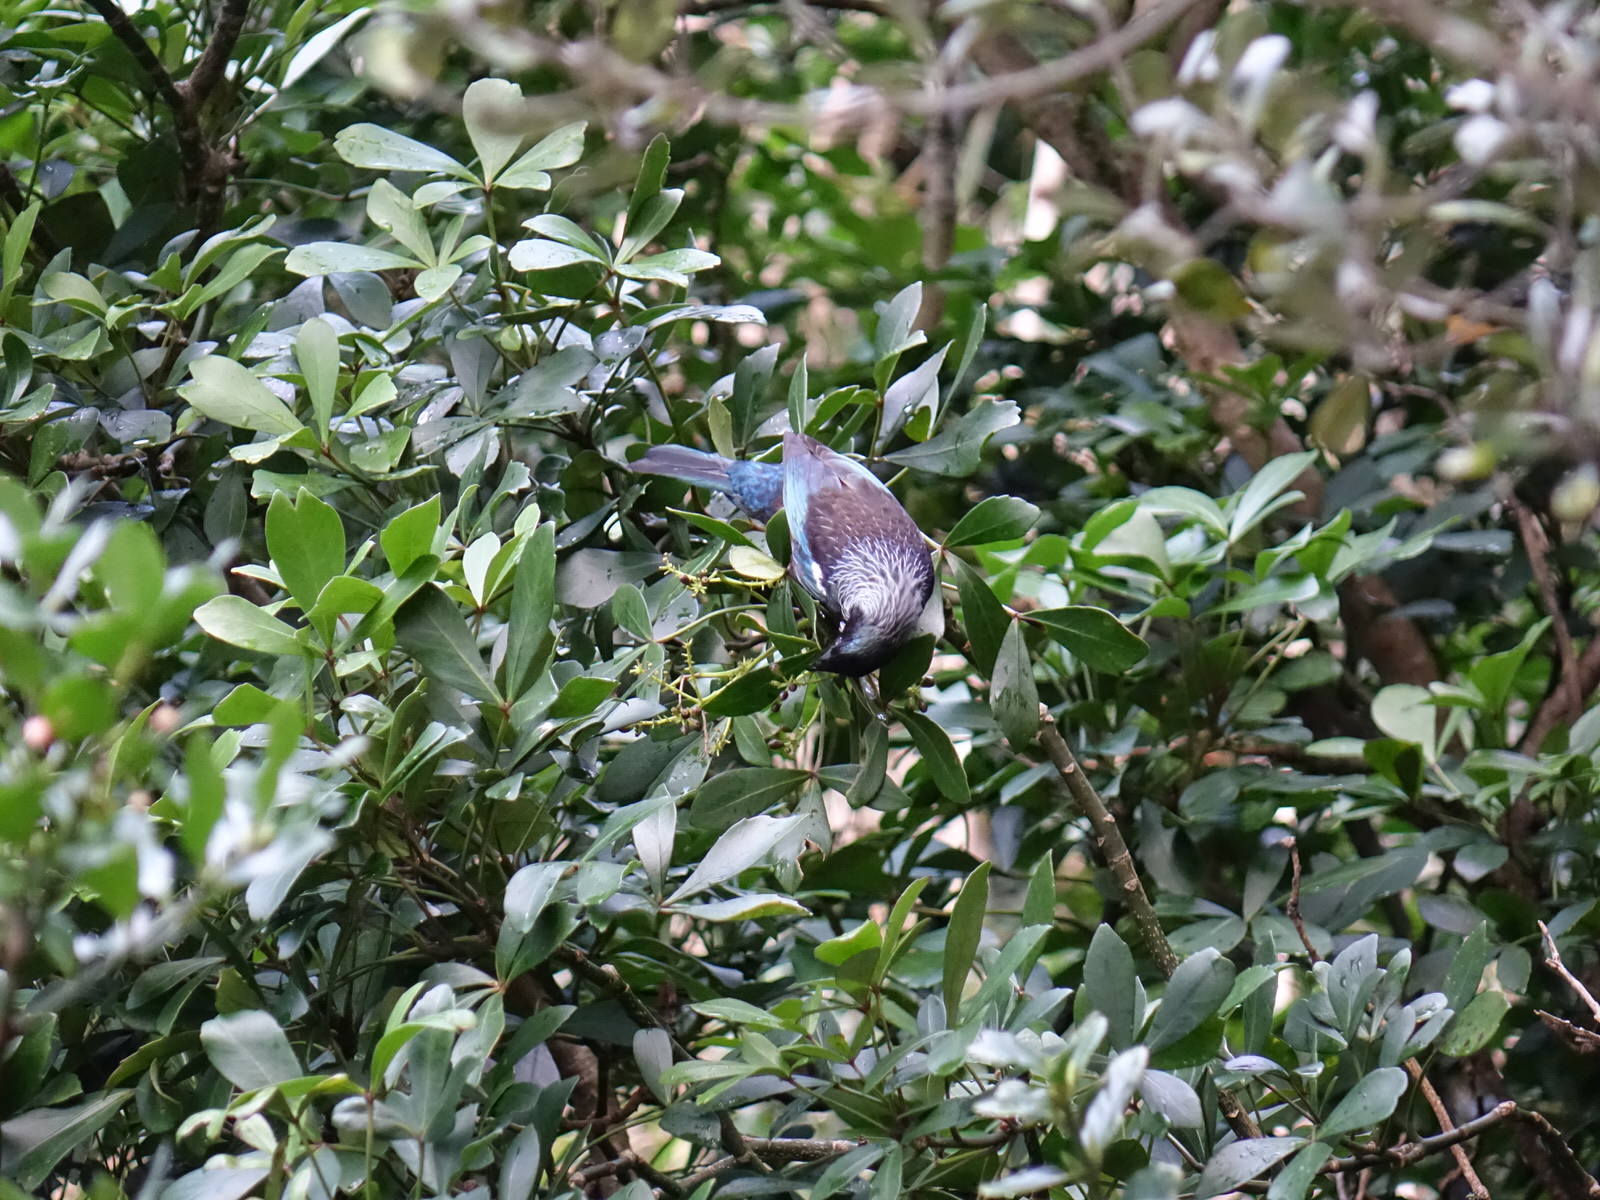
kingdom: Animalia
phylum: Chordata
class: Aves
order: Passeriformes
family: Meliphagidae
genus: Prosthemadera
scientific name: Prosthemadera novaeseelandiae
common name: Tui
